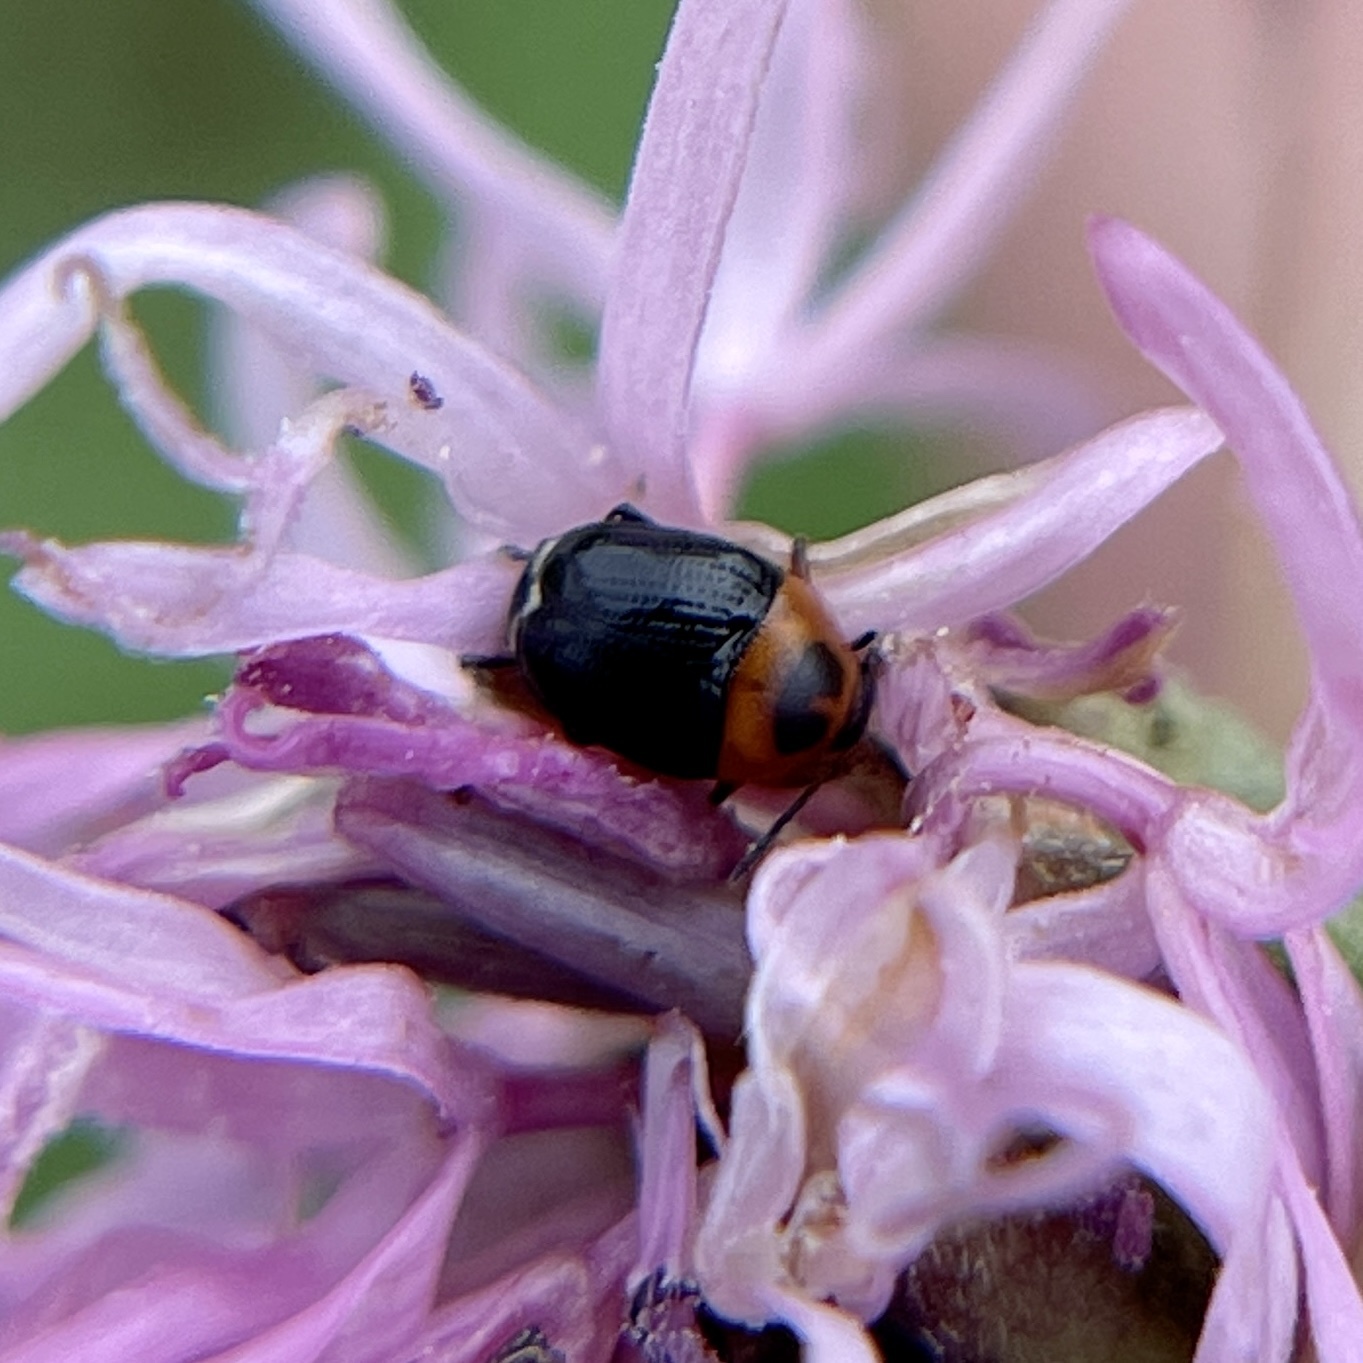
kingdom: Animalia
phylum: Arthropoda
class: Insecta
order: Coleoptera
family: Chrysomelidae
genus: Lexiphanes
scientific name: Lexiphanes teapensis
